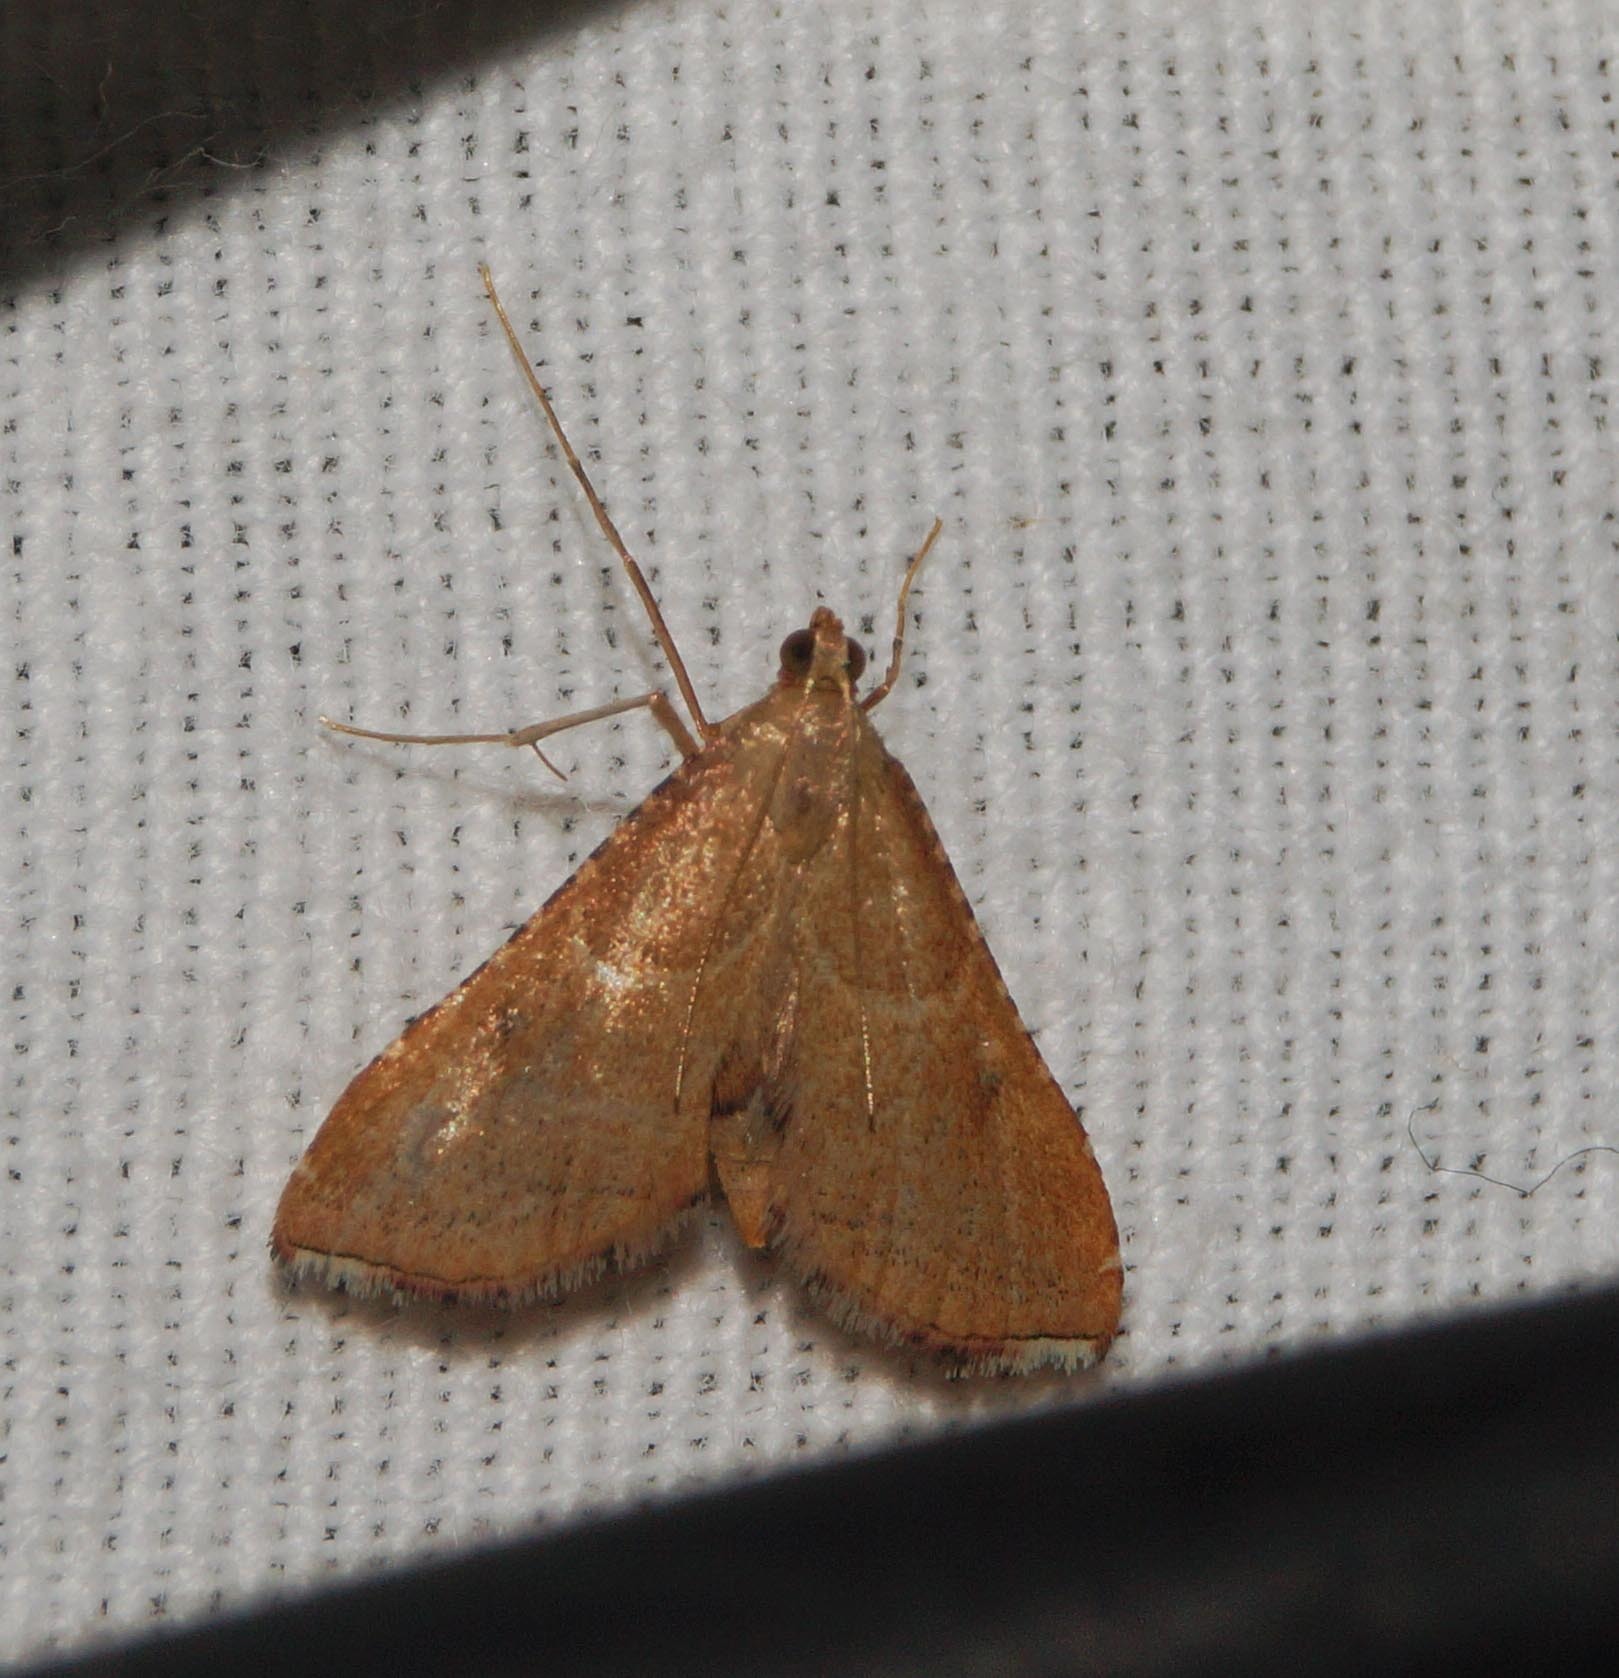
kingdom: Animalia
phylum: Arthropoda
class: Insecta
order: Lepidoptera
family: Pyralidae
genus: Endotricha
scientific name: Endotricha flammealis
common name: Rosy tabby
